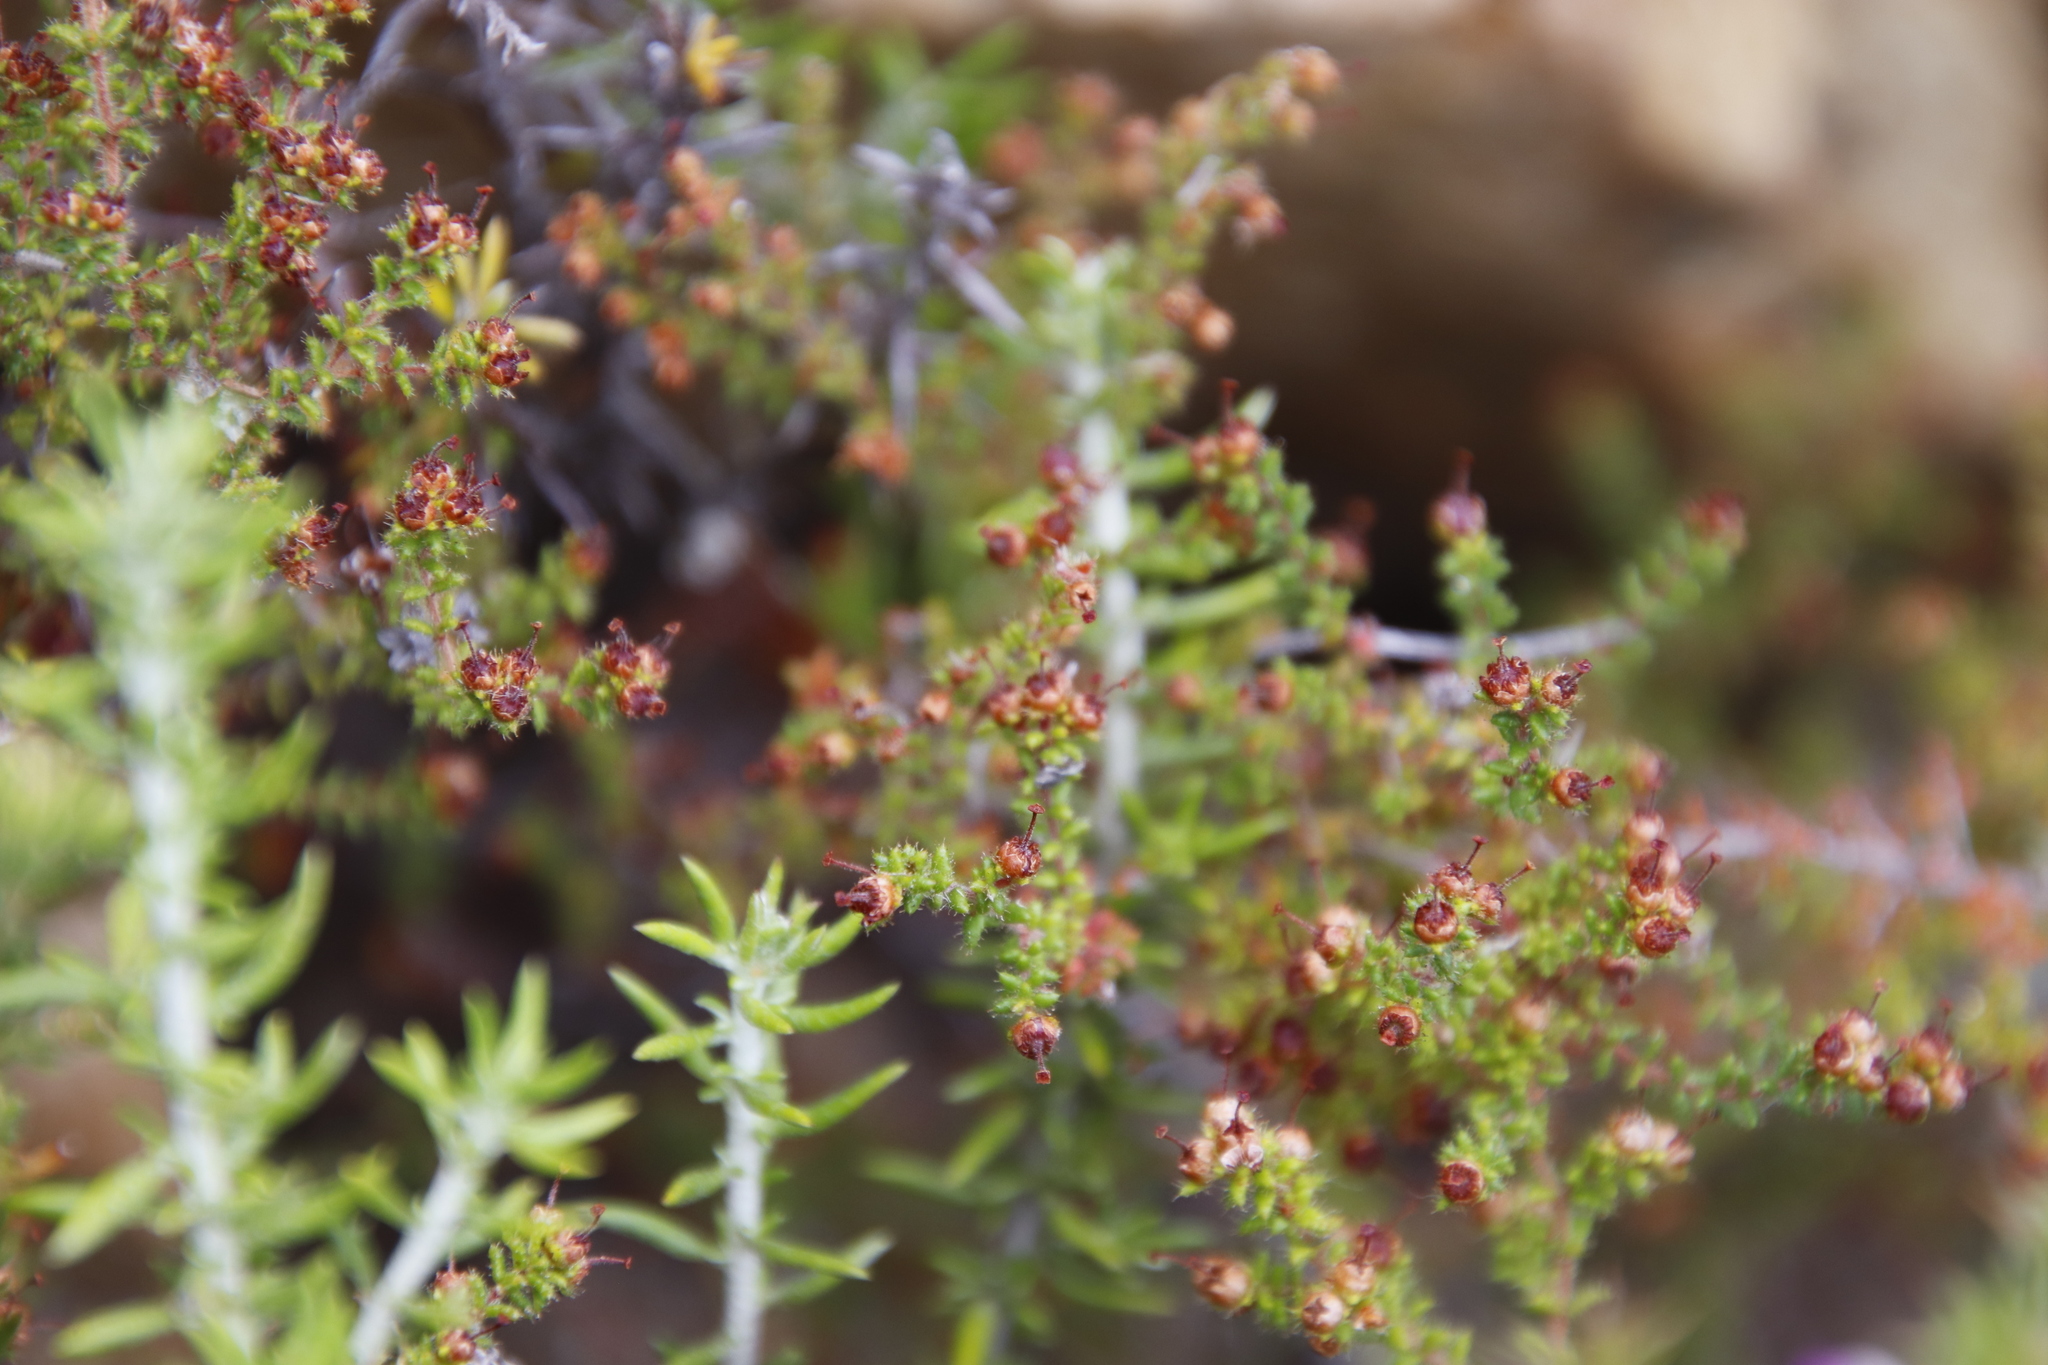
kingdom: Plantae
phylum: Tracheophyta
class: Magnoliopsida
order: Ericales
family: Ericaceae
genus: Erica
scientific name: Erica exleeana
